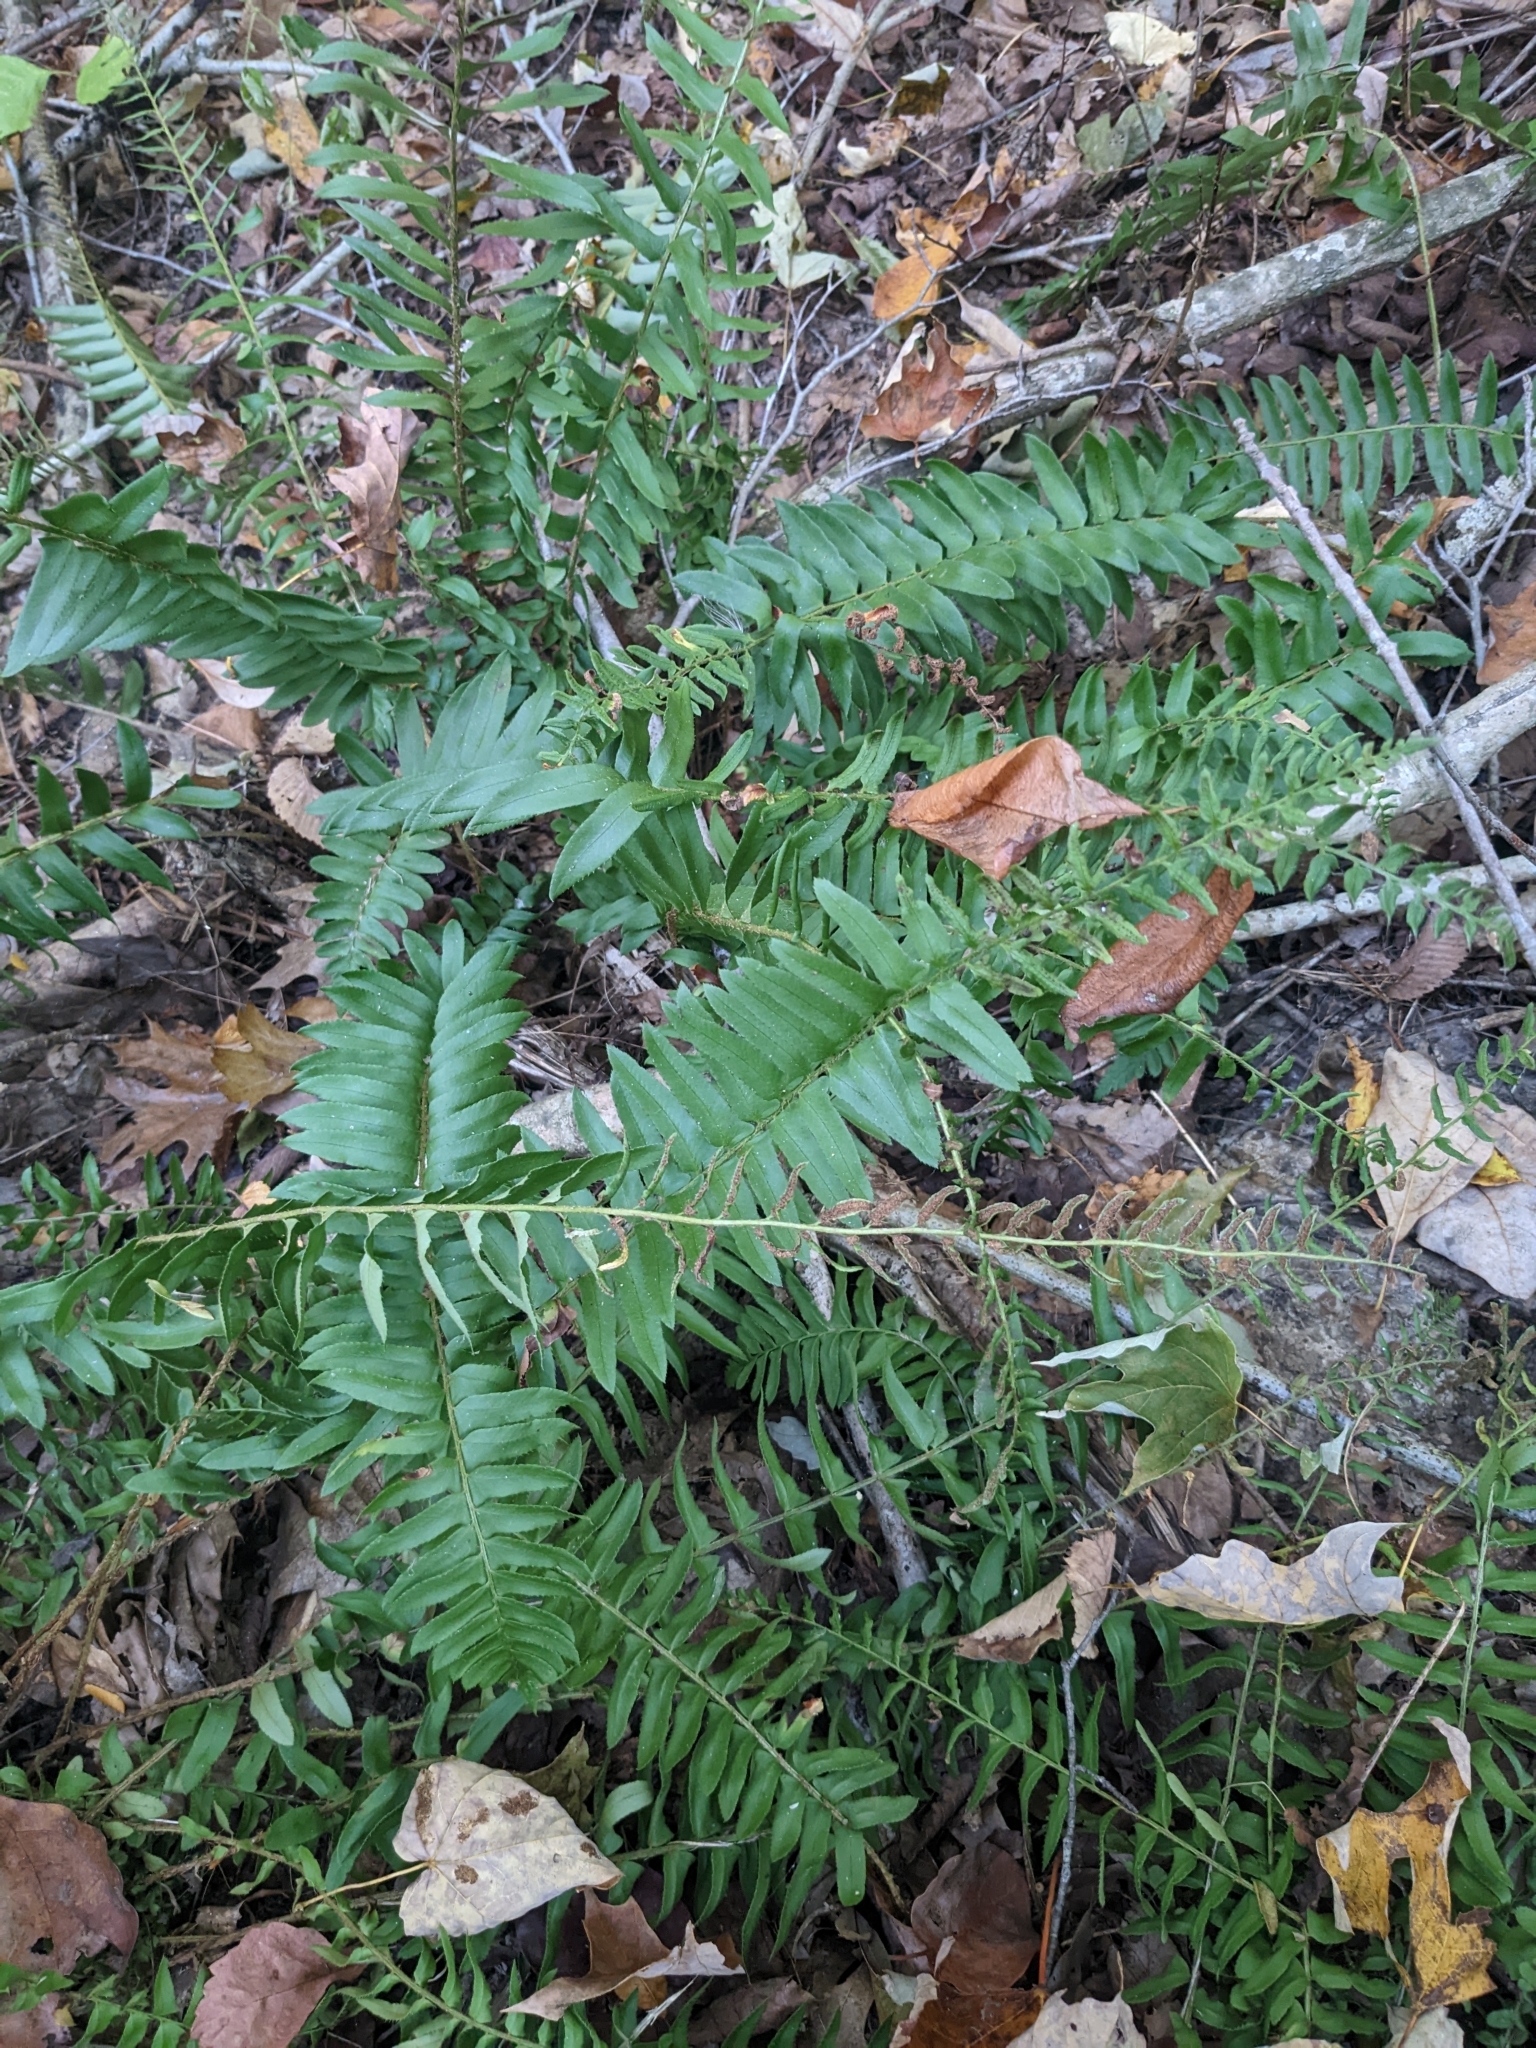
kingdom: Plantae
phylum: Tracheophyta
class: Polypodiopsida
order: Polypodiales
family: Dryopteridaceae
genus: Polystichum
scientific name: Polystichum acrostichoides
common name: Christmas fern
